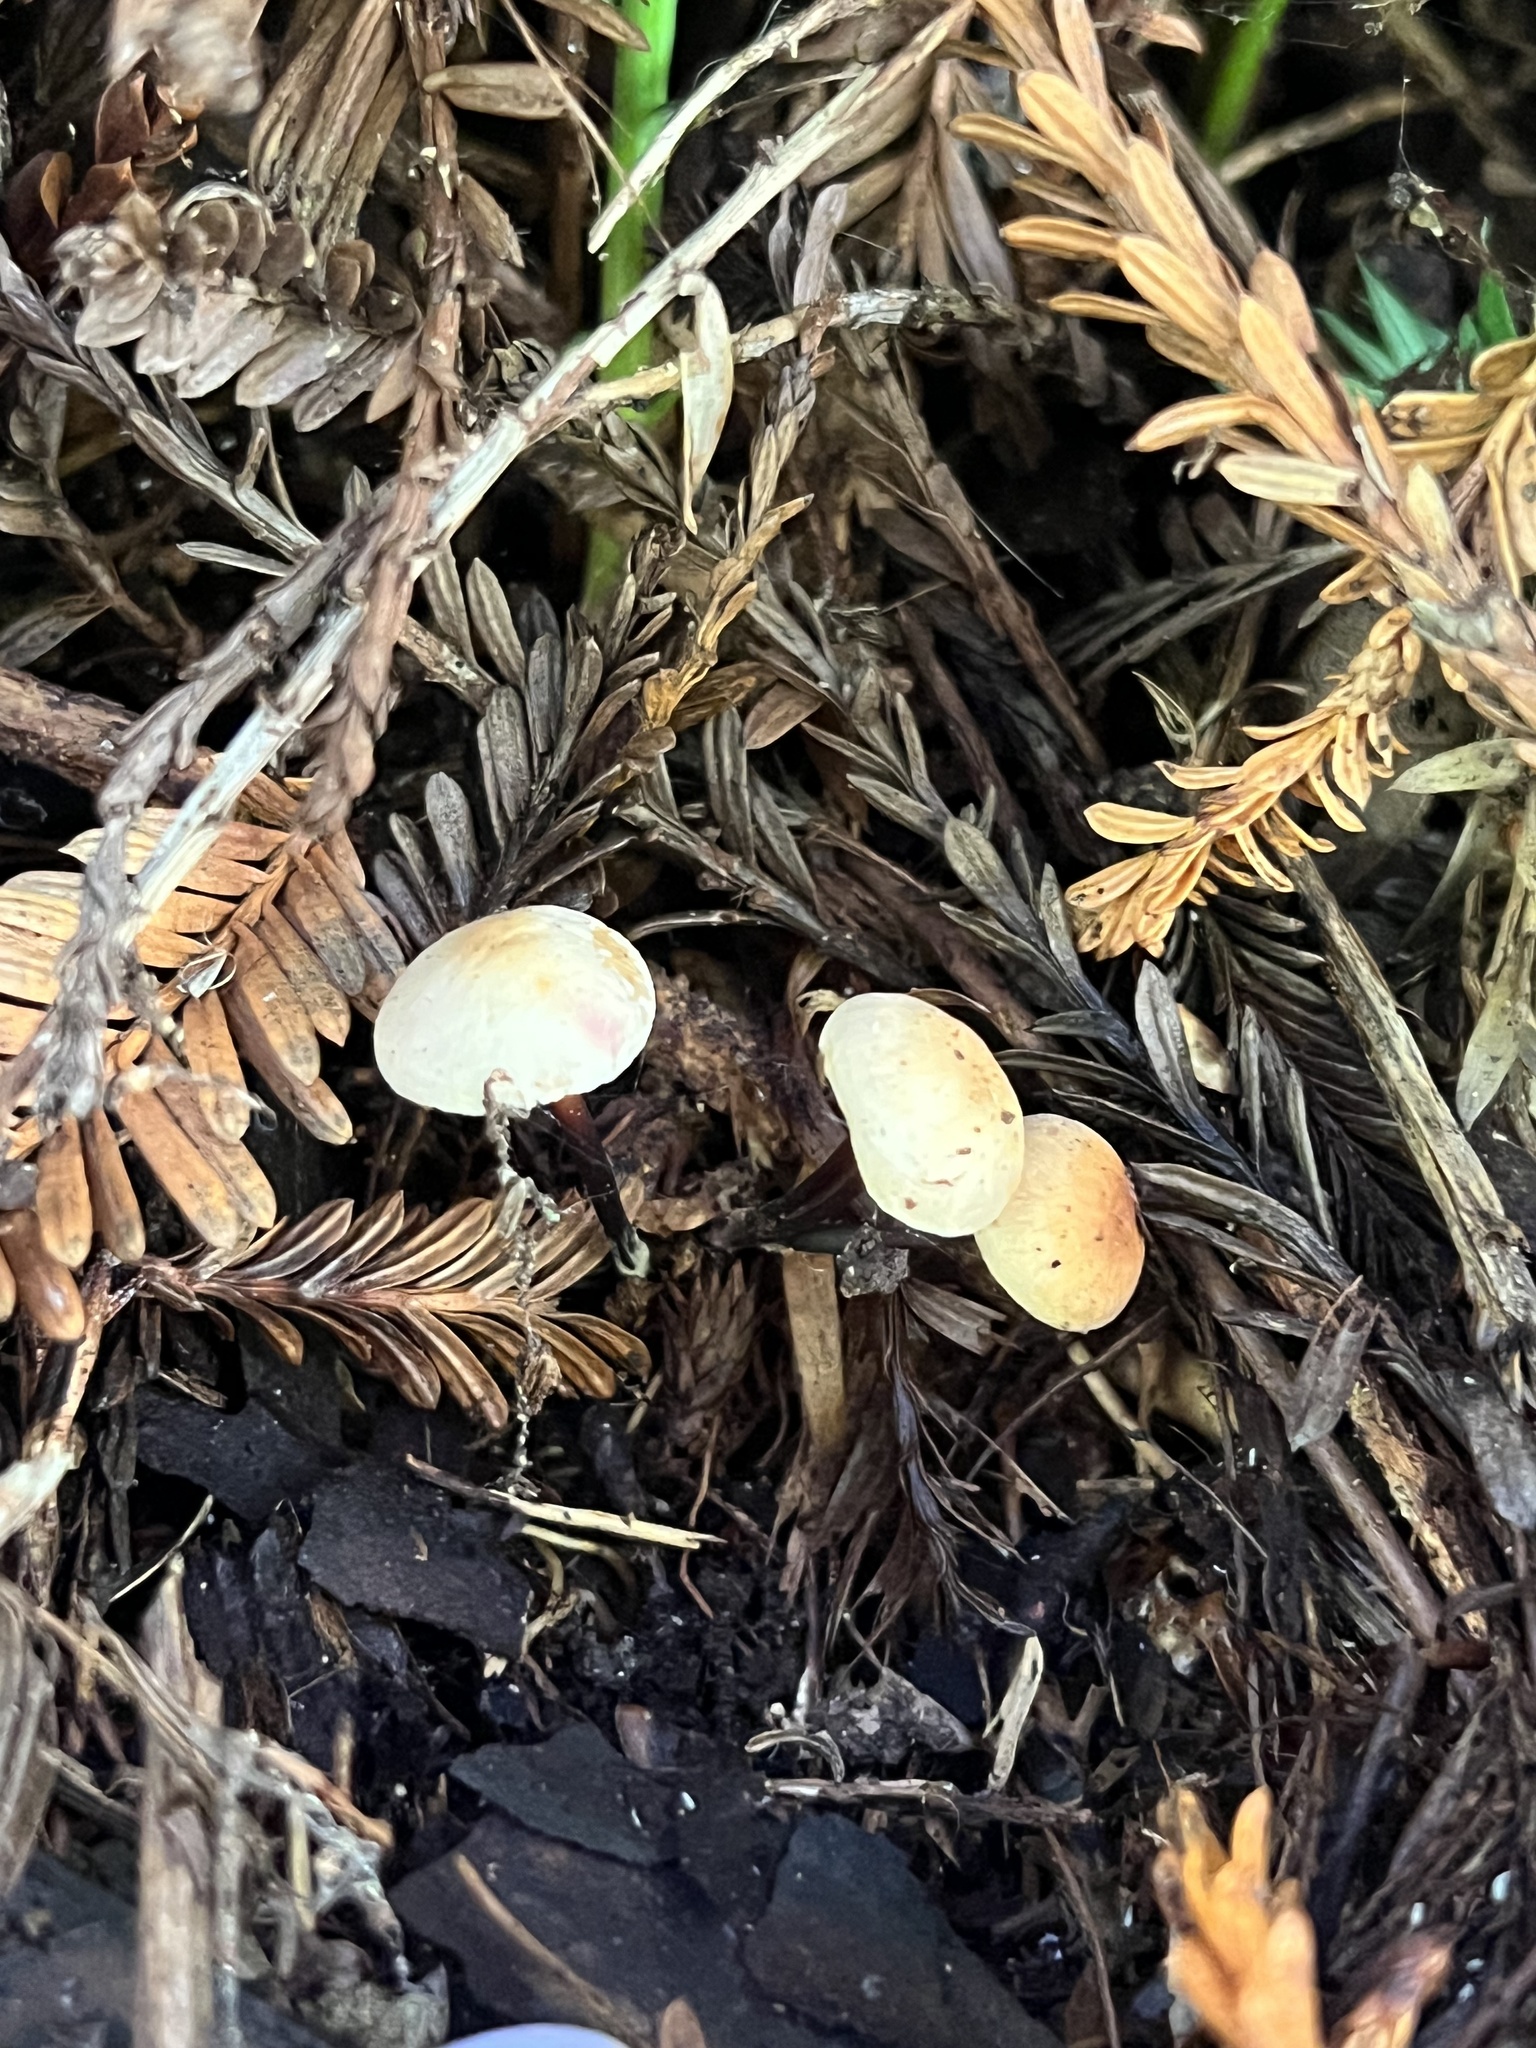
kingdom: Fungi
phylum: Basidiomycota
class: Agaricomycetes
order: Agaricales
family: Omphalotaceae
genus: Gymnopus
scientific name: Gymnopus brassicolens
